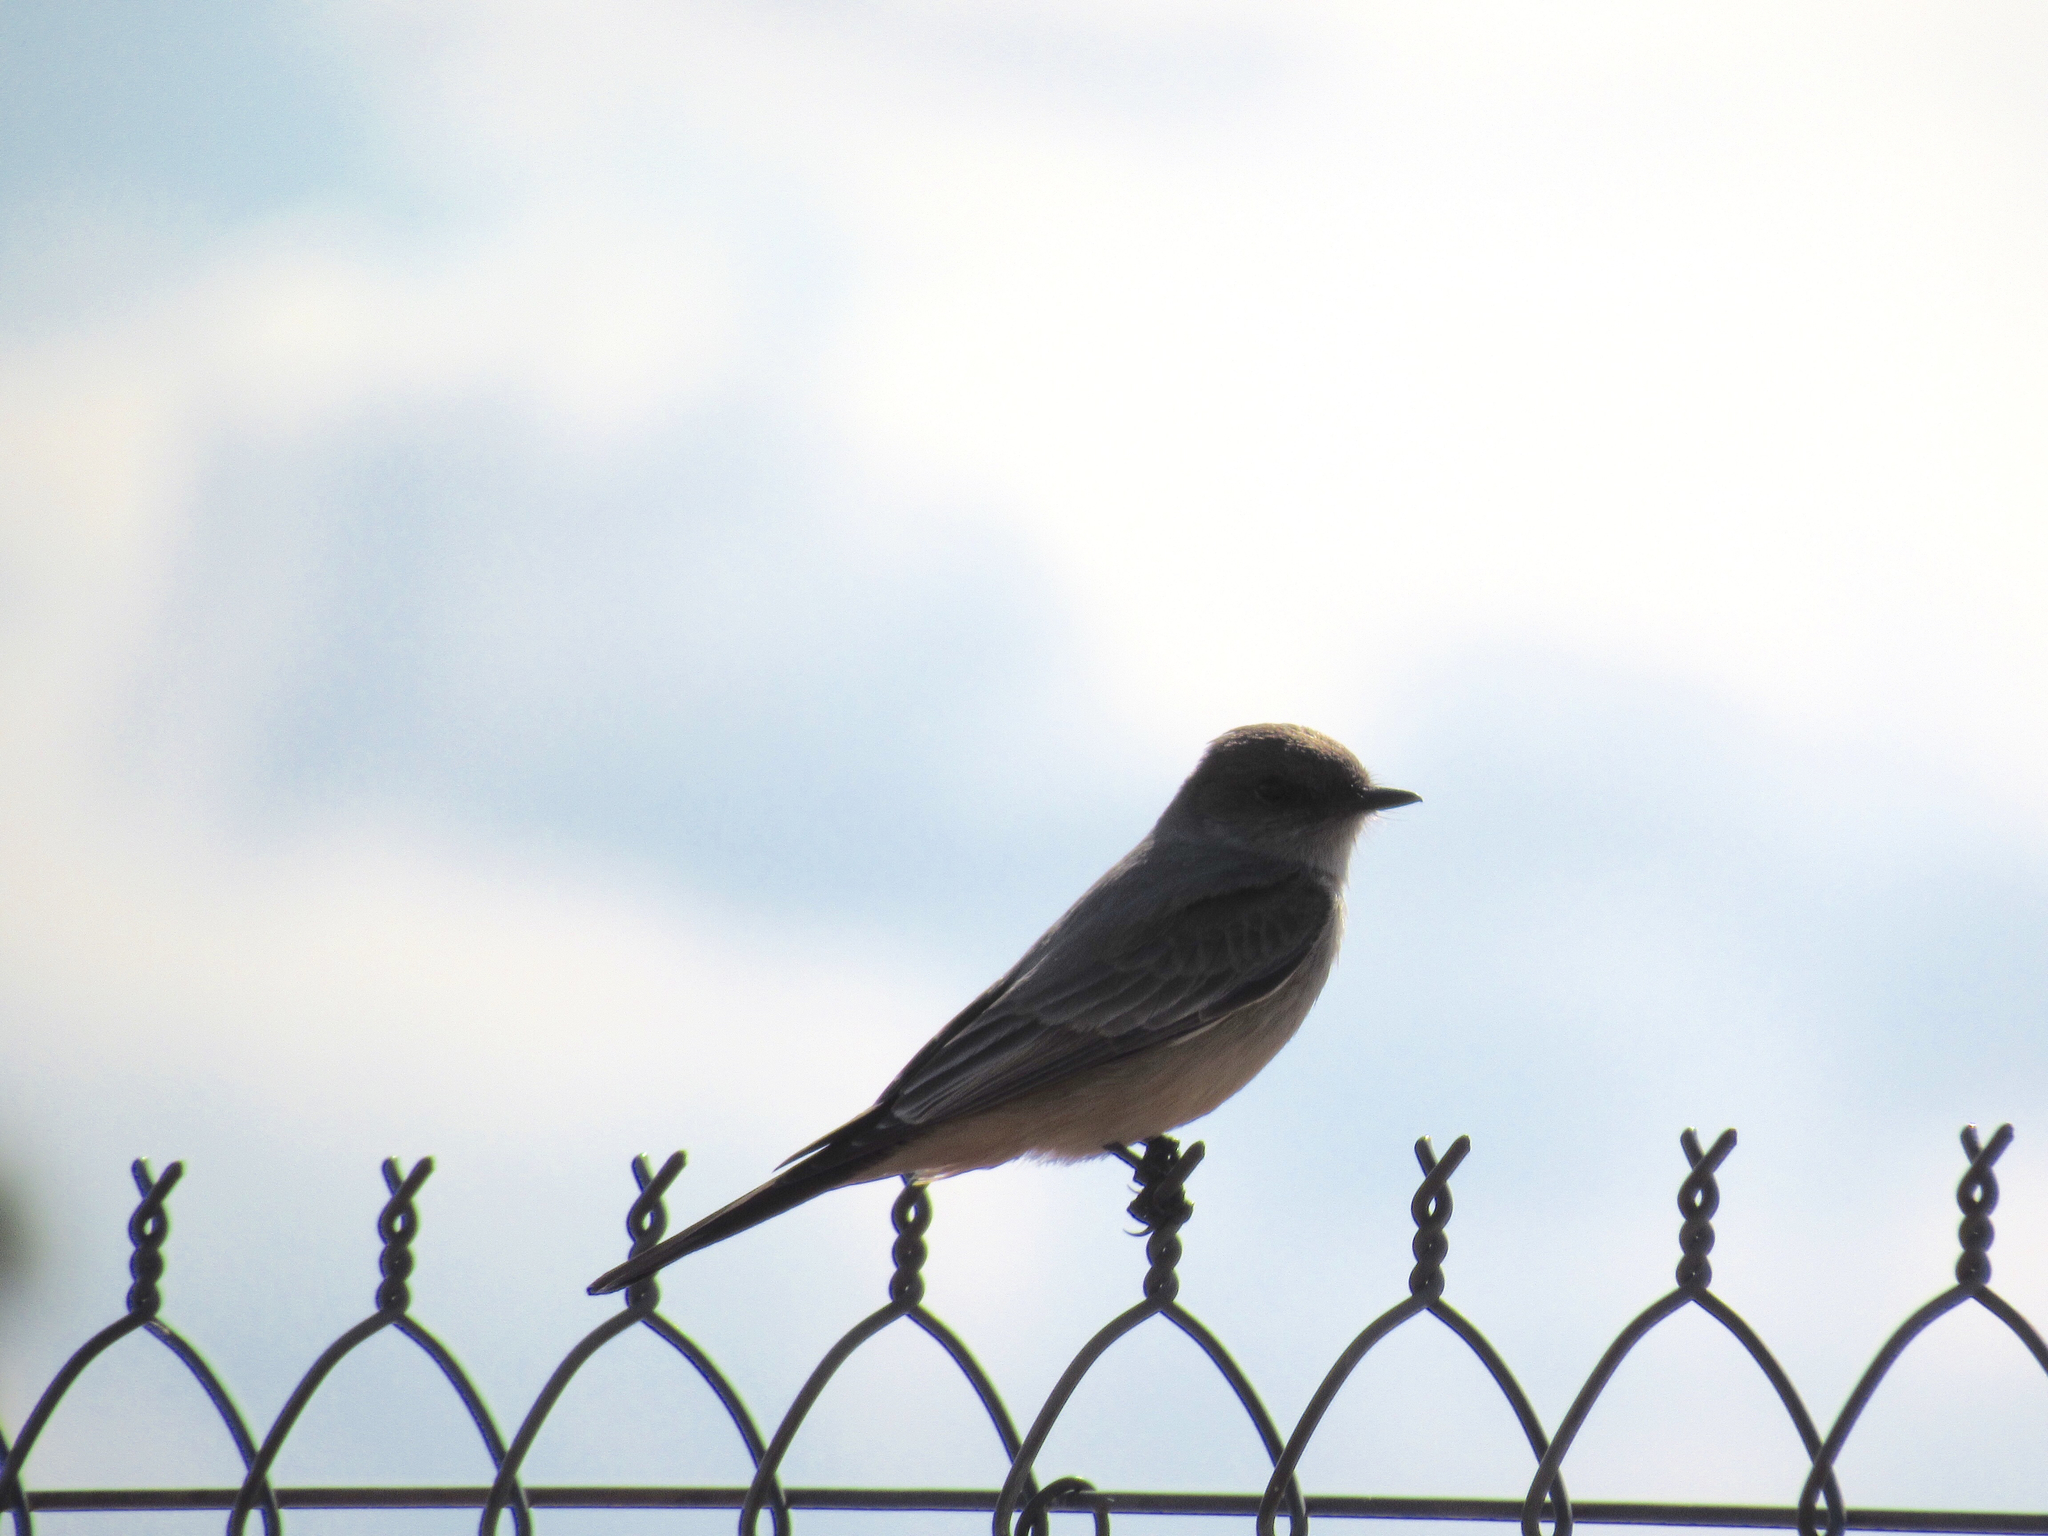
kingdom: Animalia
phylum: Chordata
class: Aves
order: Passeriformes
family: Tyrannidae
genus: Sayornis
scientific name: Sayornis saya
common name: Say's phoebe
